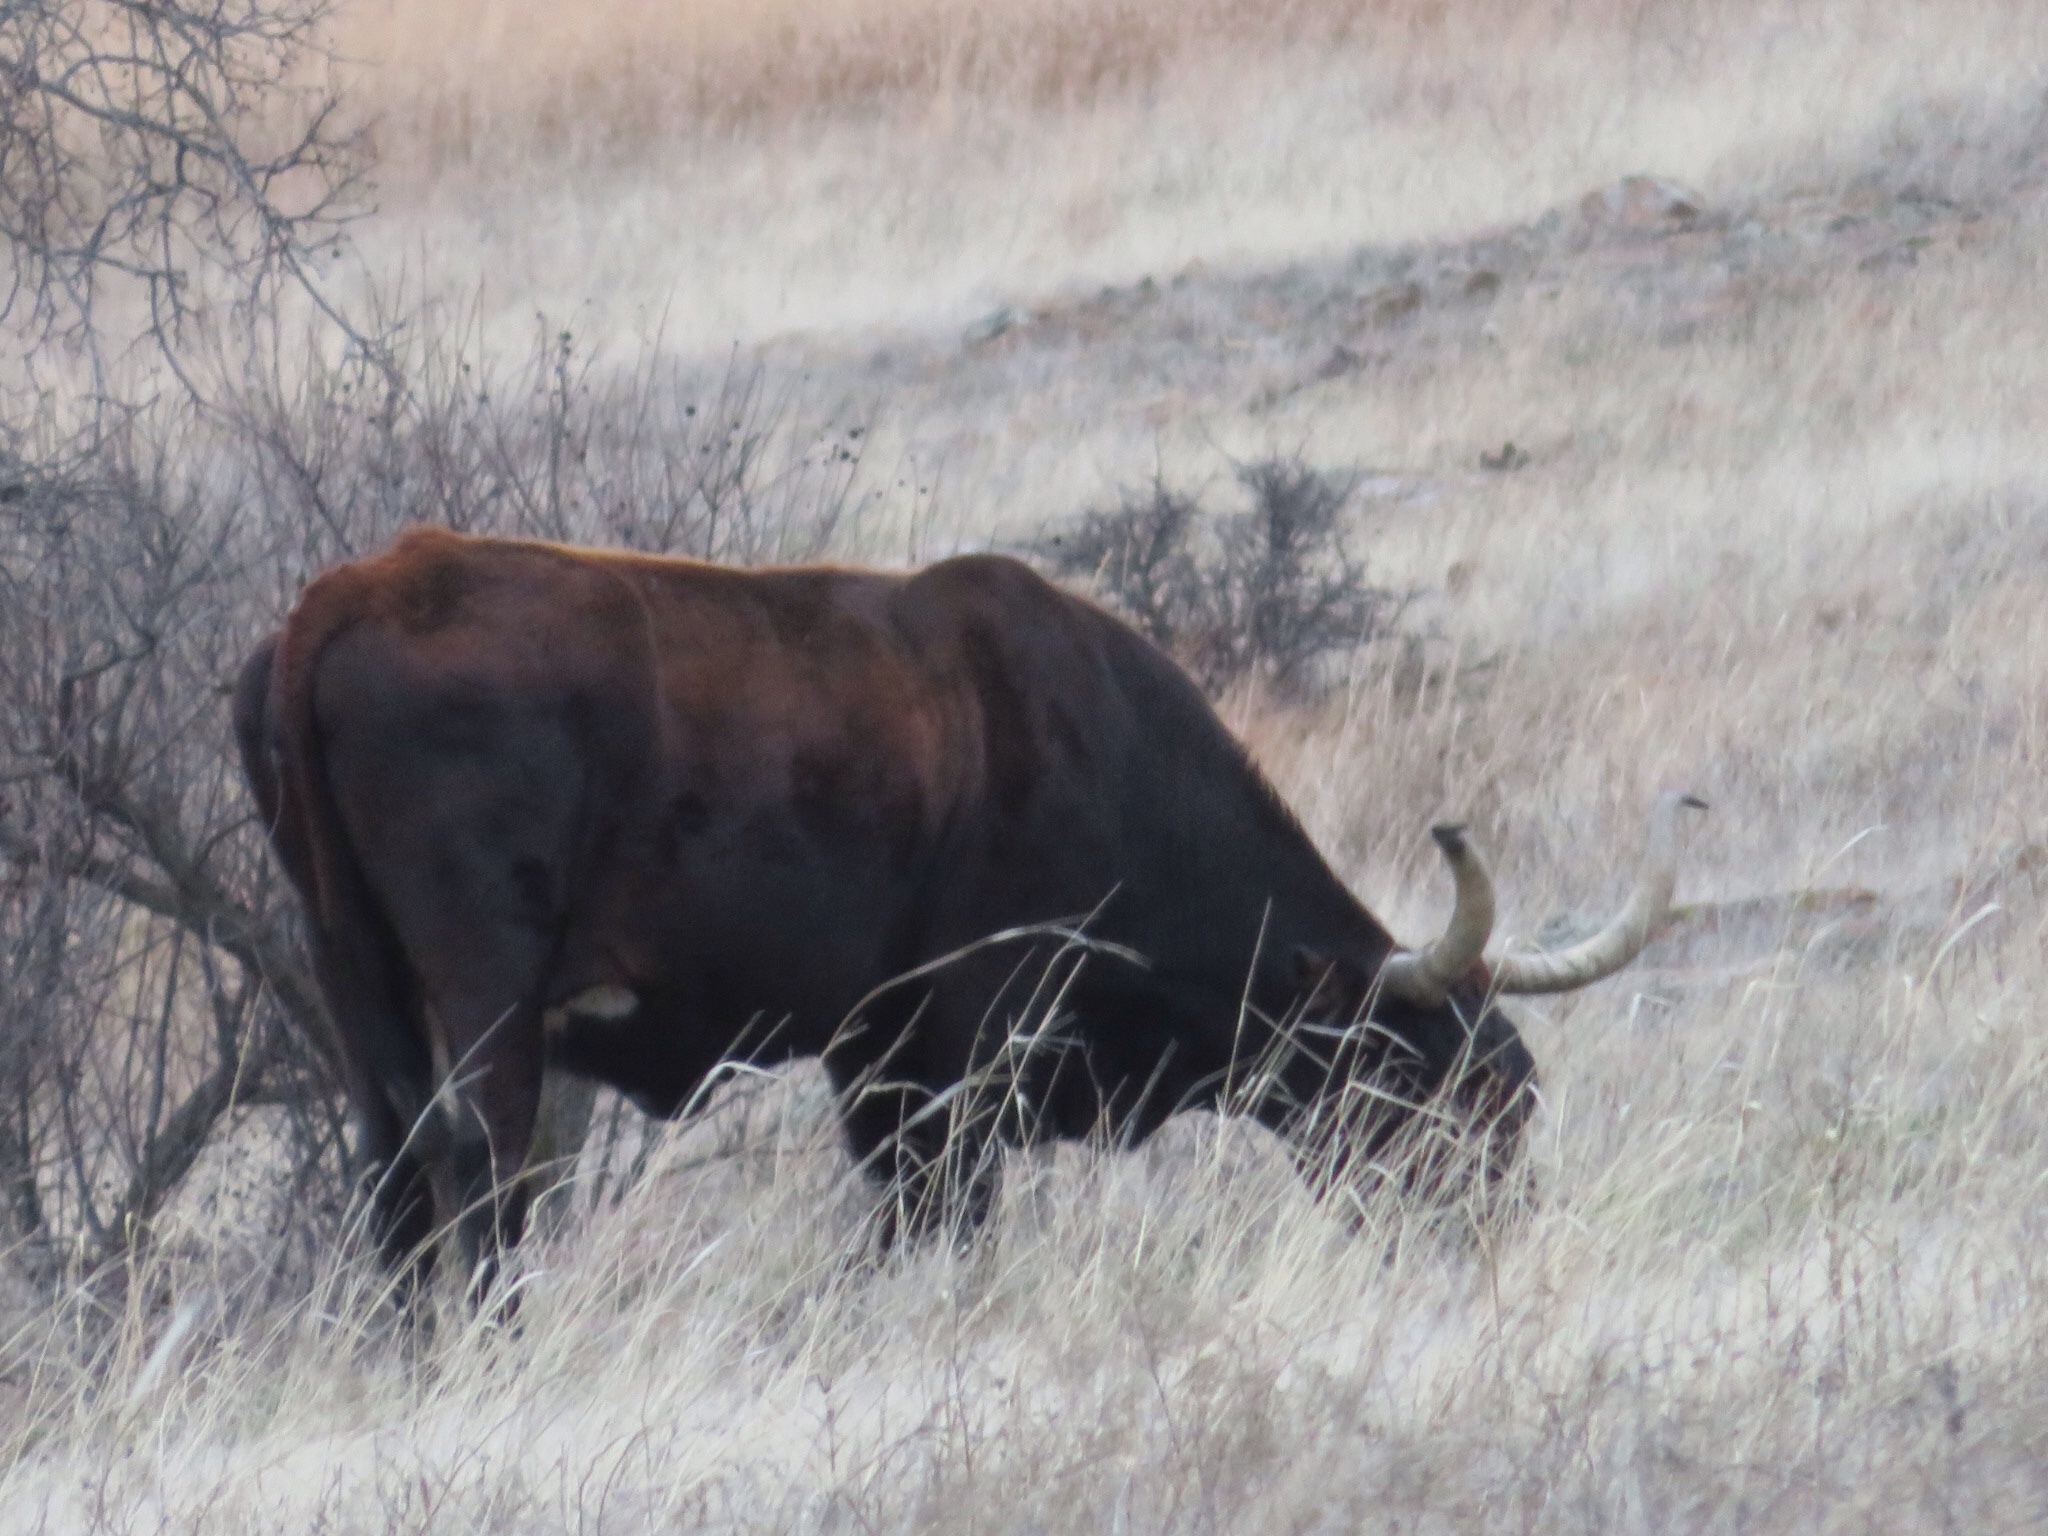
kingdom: Animalia
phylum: Chordata
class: Mammalia
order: Artiodactyla
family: Bovidae
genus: Bos
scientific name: Bos taurus
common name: Domesticated cattle
